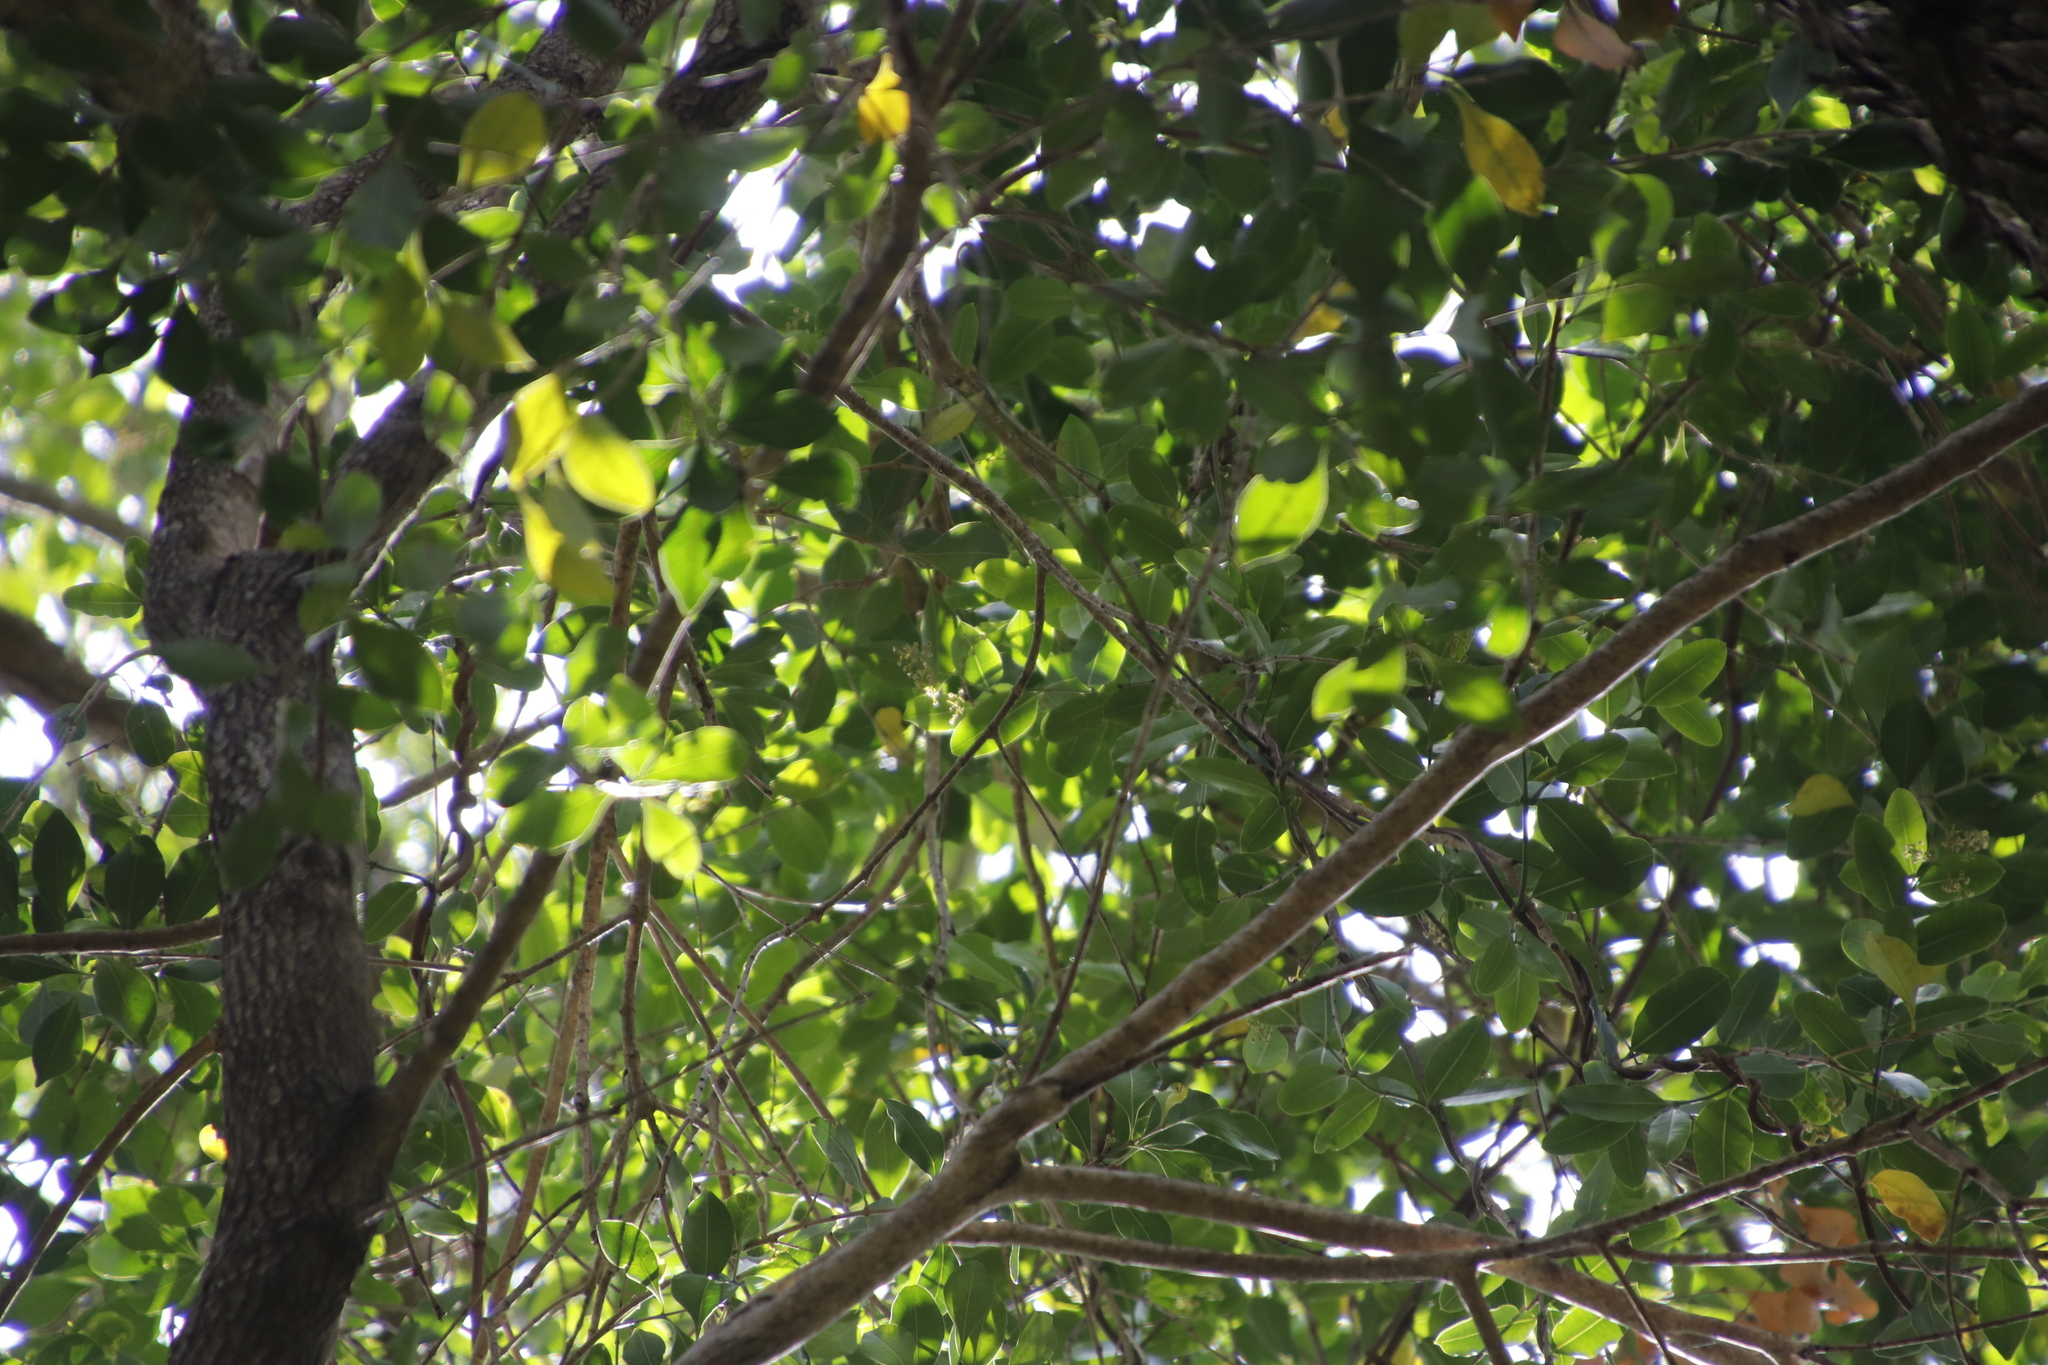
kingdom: Plantae
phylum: Tracheophyta
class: Magnoliopsida
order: Myrtales
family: Penaeaceae
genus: Olinia
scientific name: Olinia ventosa
